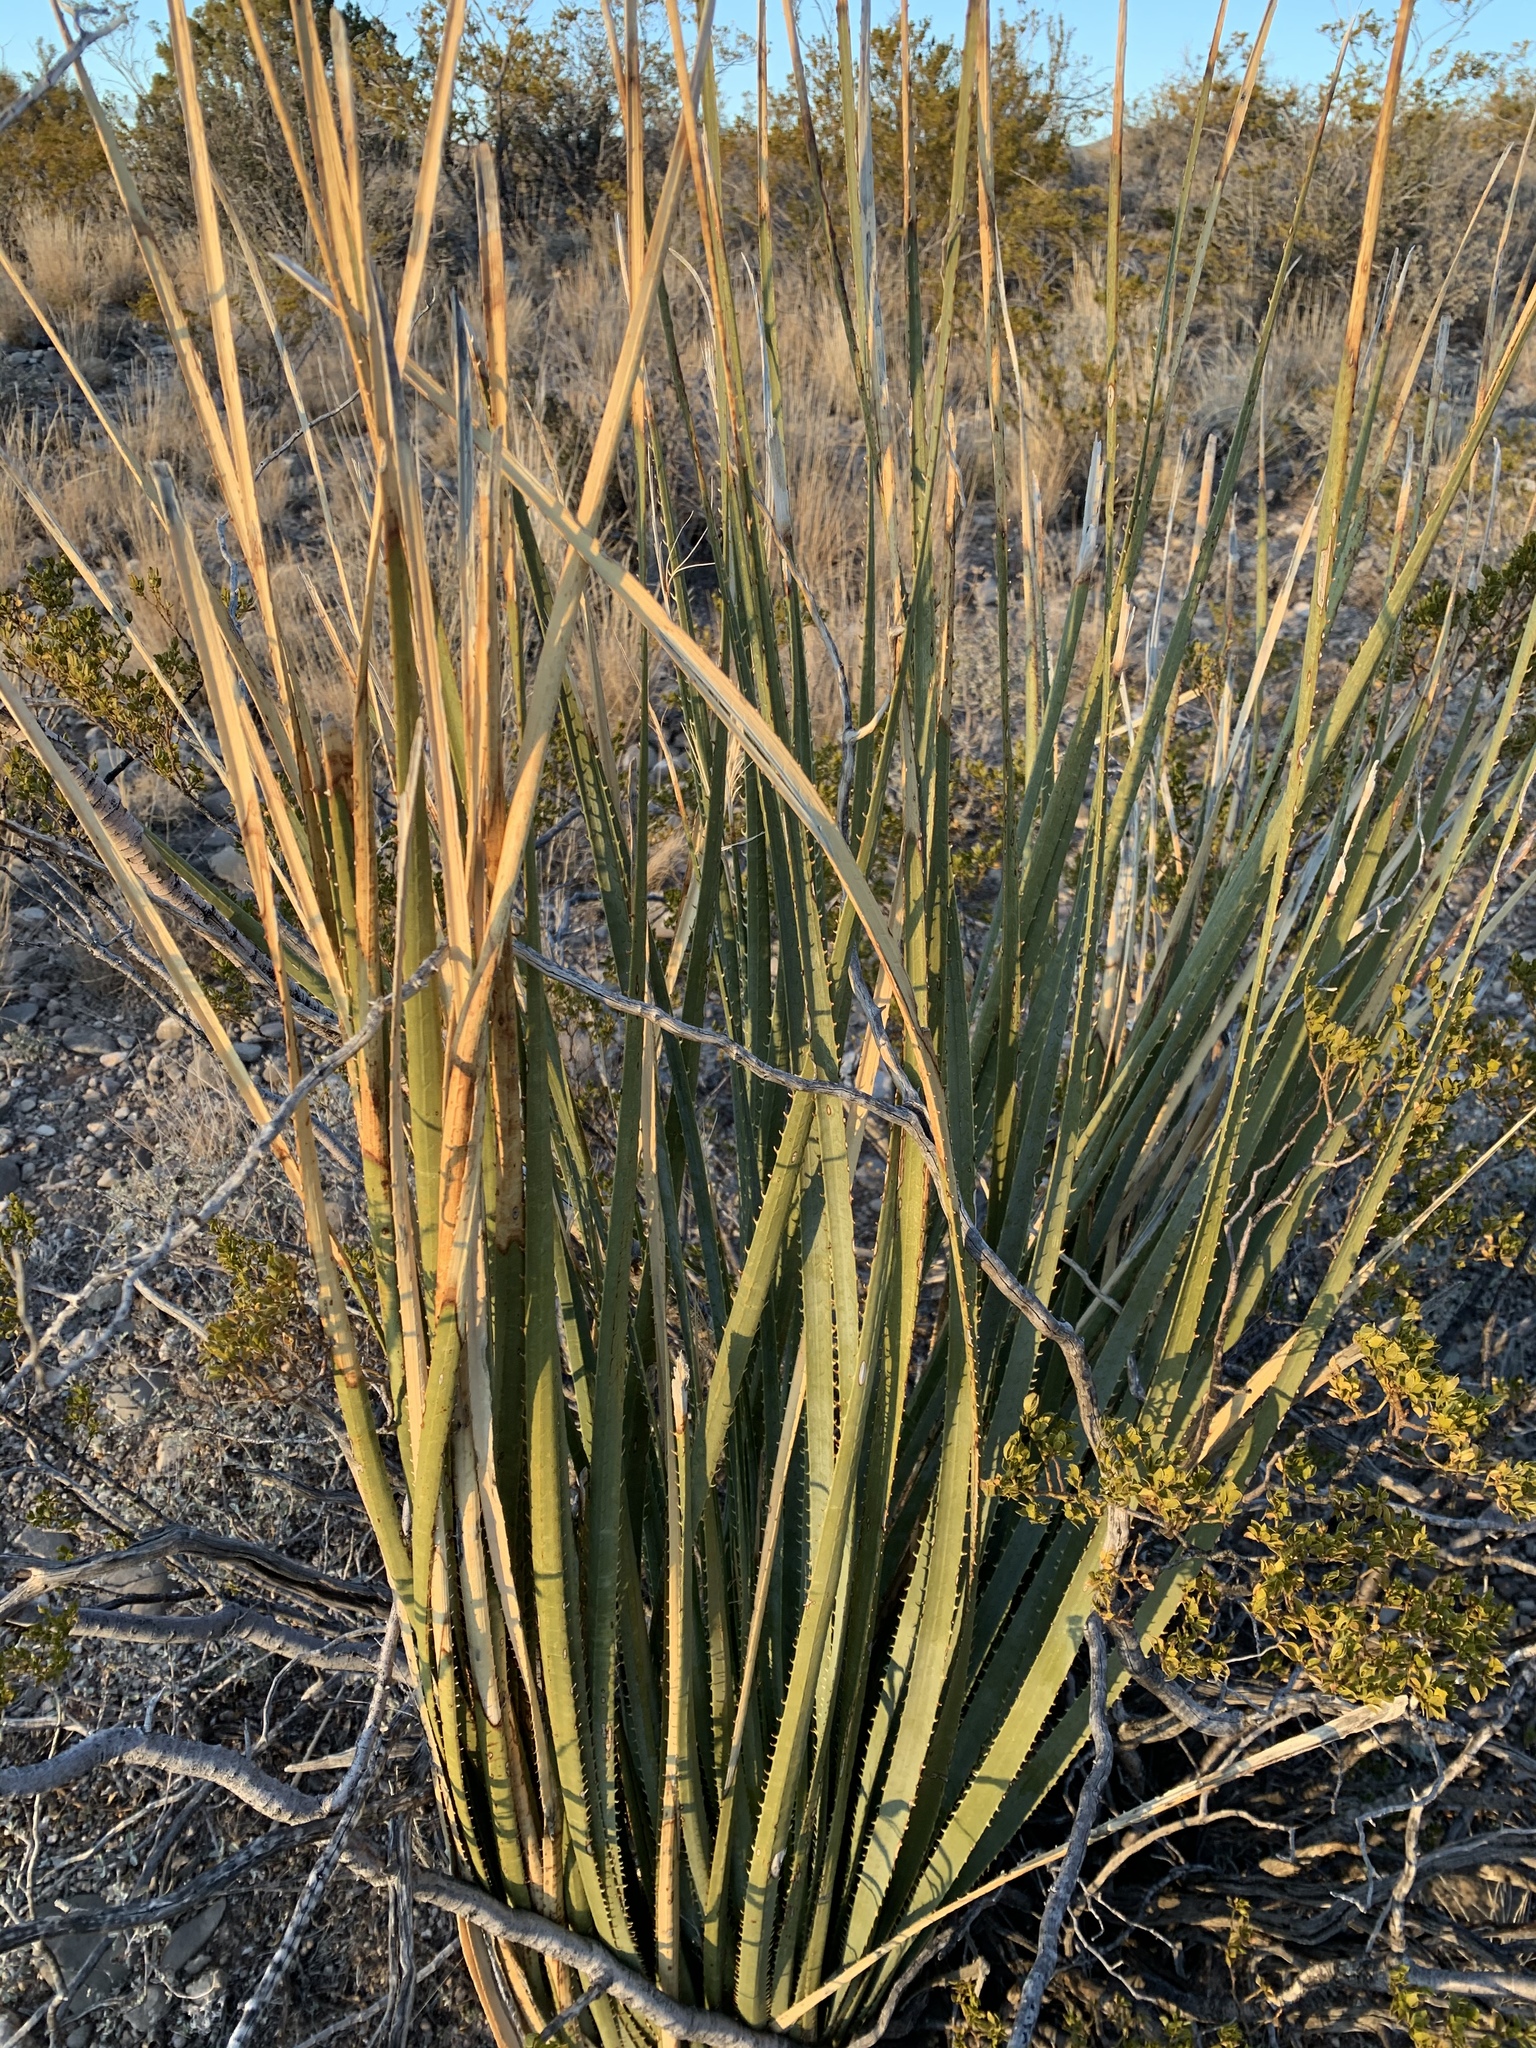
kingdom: Plantae
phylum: Tracheophyta
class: Liliopsida
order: Asparagales
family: Asparagaceae
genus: Dasylirion
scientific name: Dasylirion wheeleri
